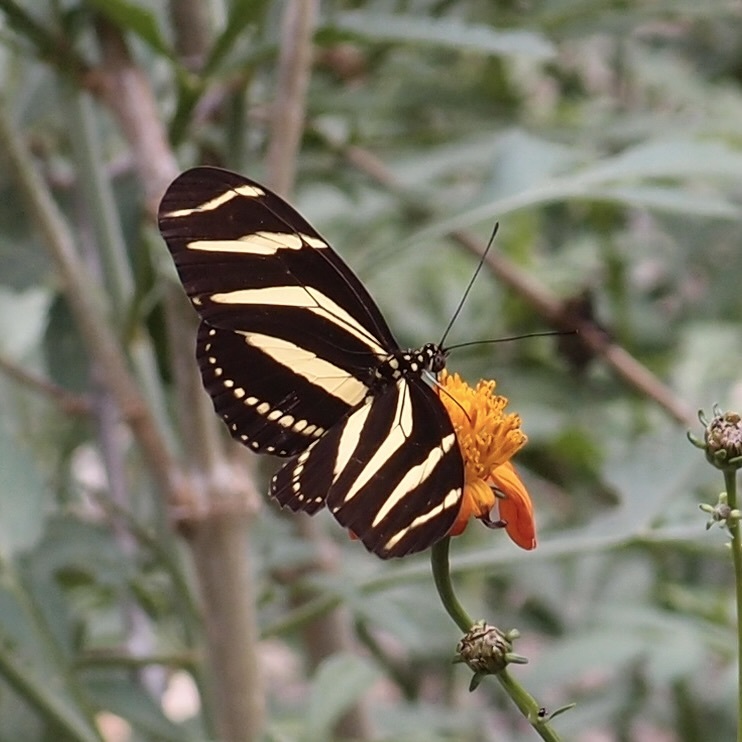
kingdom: Animalia
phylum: Arthropoda
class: Insecta
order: Lepidoptera
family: Nymphalidae
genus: Heliconius
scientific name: Heliconius charithonia
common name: Zebra long wing
